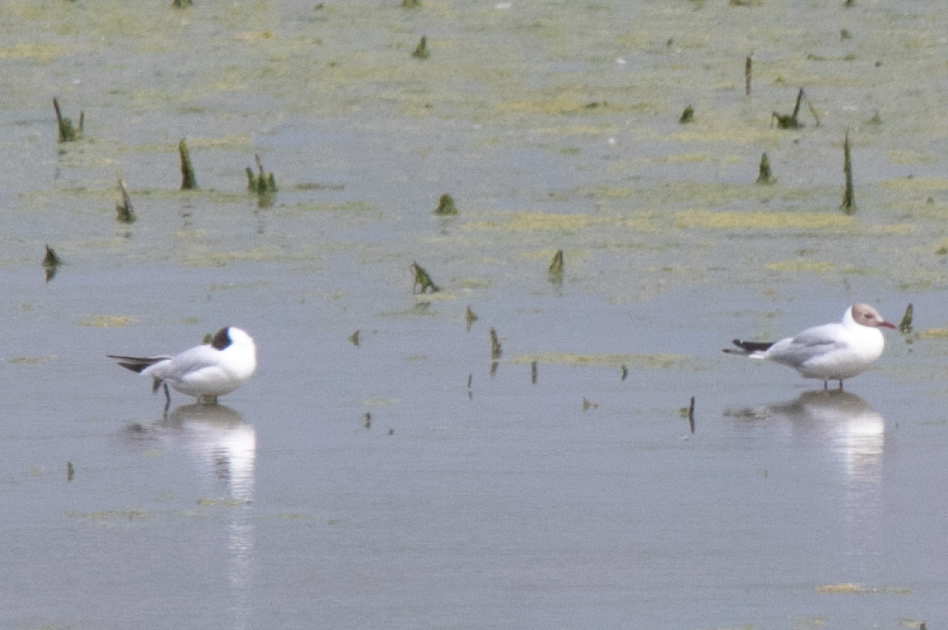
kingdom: Animalia
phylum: Chordata
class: Aves
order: Charadriiformes
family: Laridae
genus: Chroicocephalus
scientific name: Chroicocephalus ridibundus
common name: Black-headed gull
